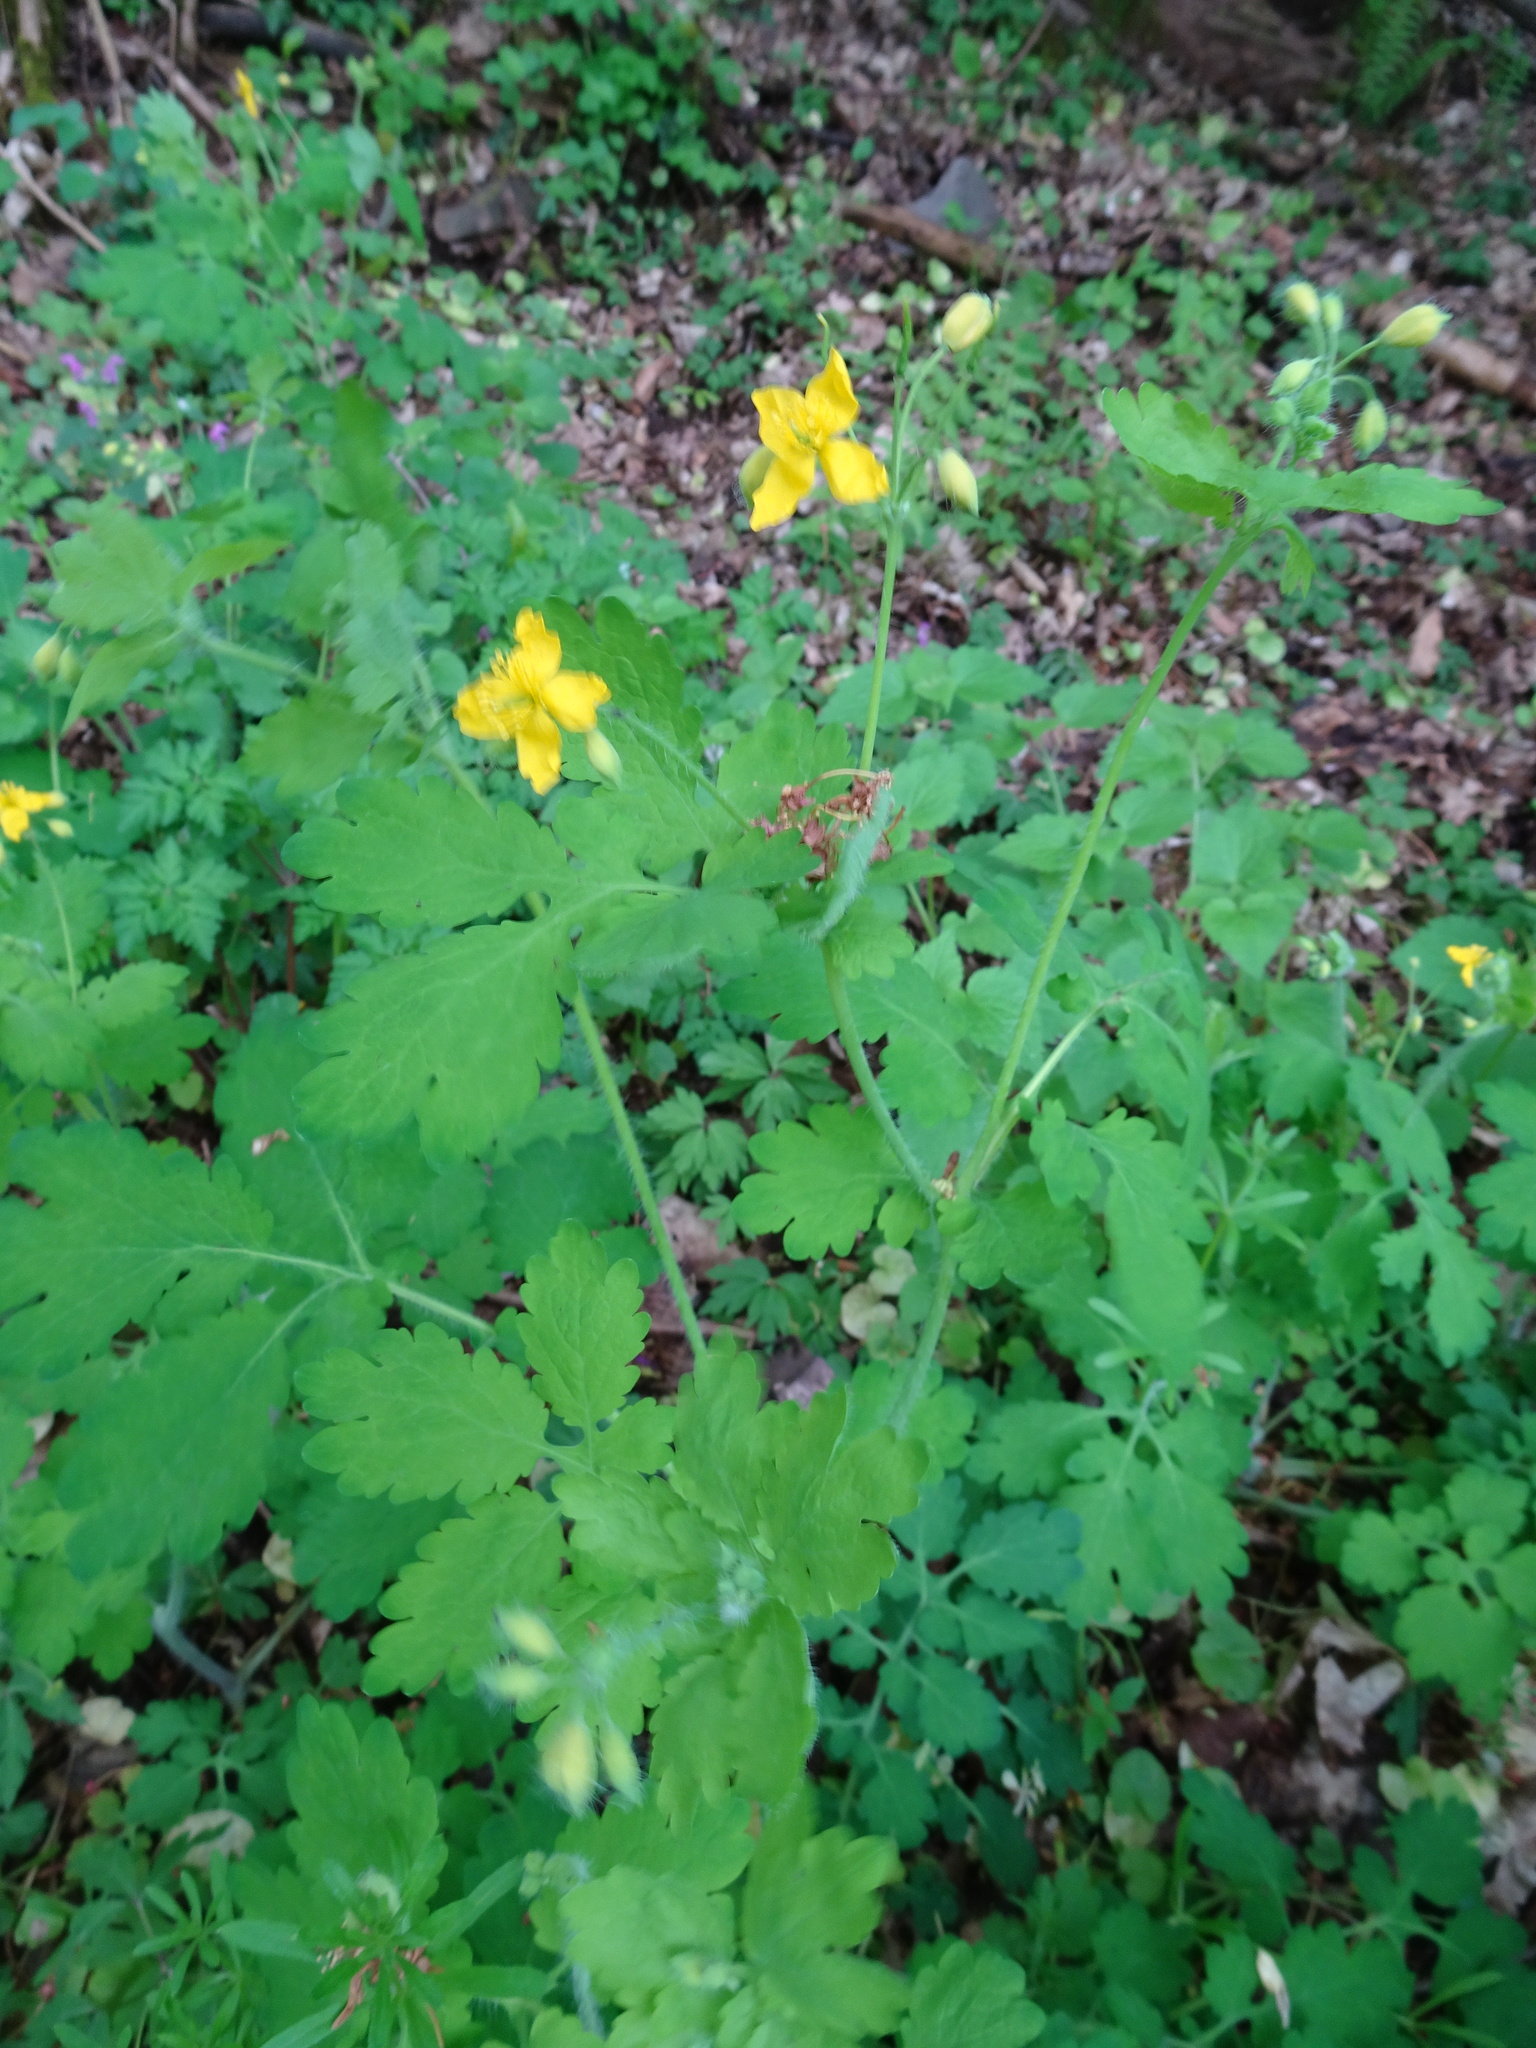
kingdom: Plantae
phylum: Tracheophyta
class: Magnoliopsida
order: Ranunculales
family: Papaveraceae
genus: Chelidonium
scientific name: Chelidonium majus
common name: Greater celandine
